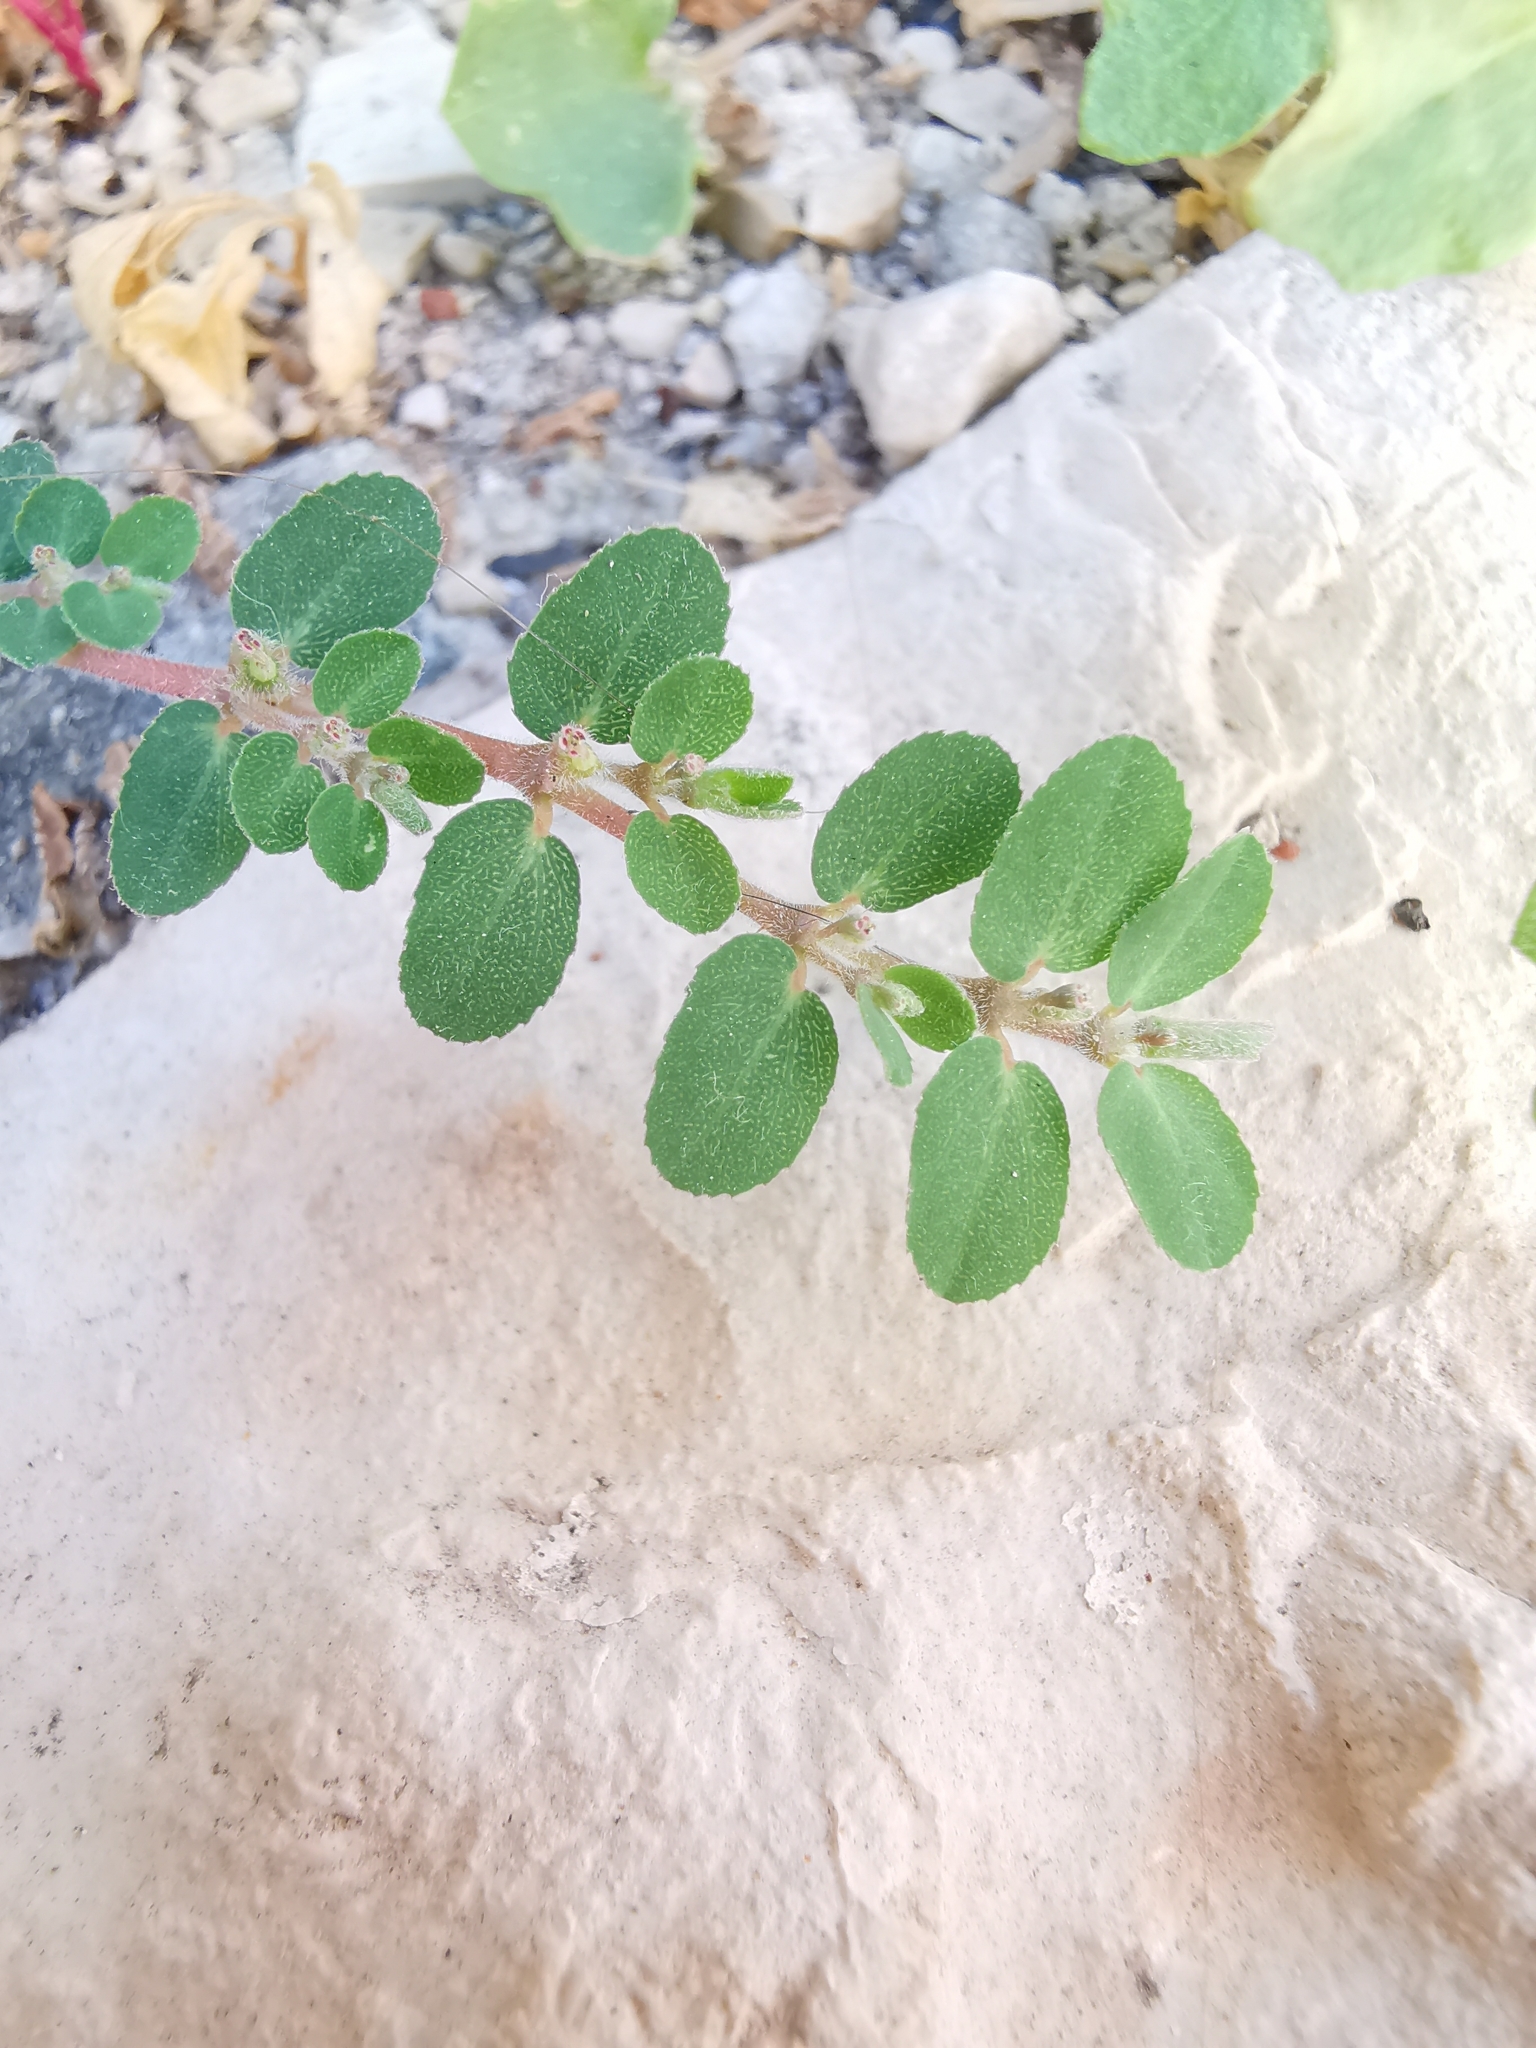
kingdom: Plantae
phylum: Tracheophyta
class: Magnoliopsida
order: Malpighiales
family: Euphorbiaceae
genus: Euphorbia
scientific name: Euphorbia prostrata
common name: Prostrate sandmat
